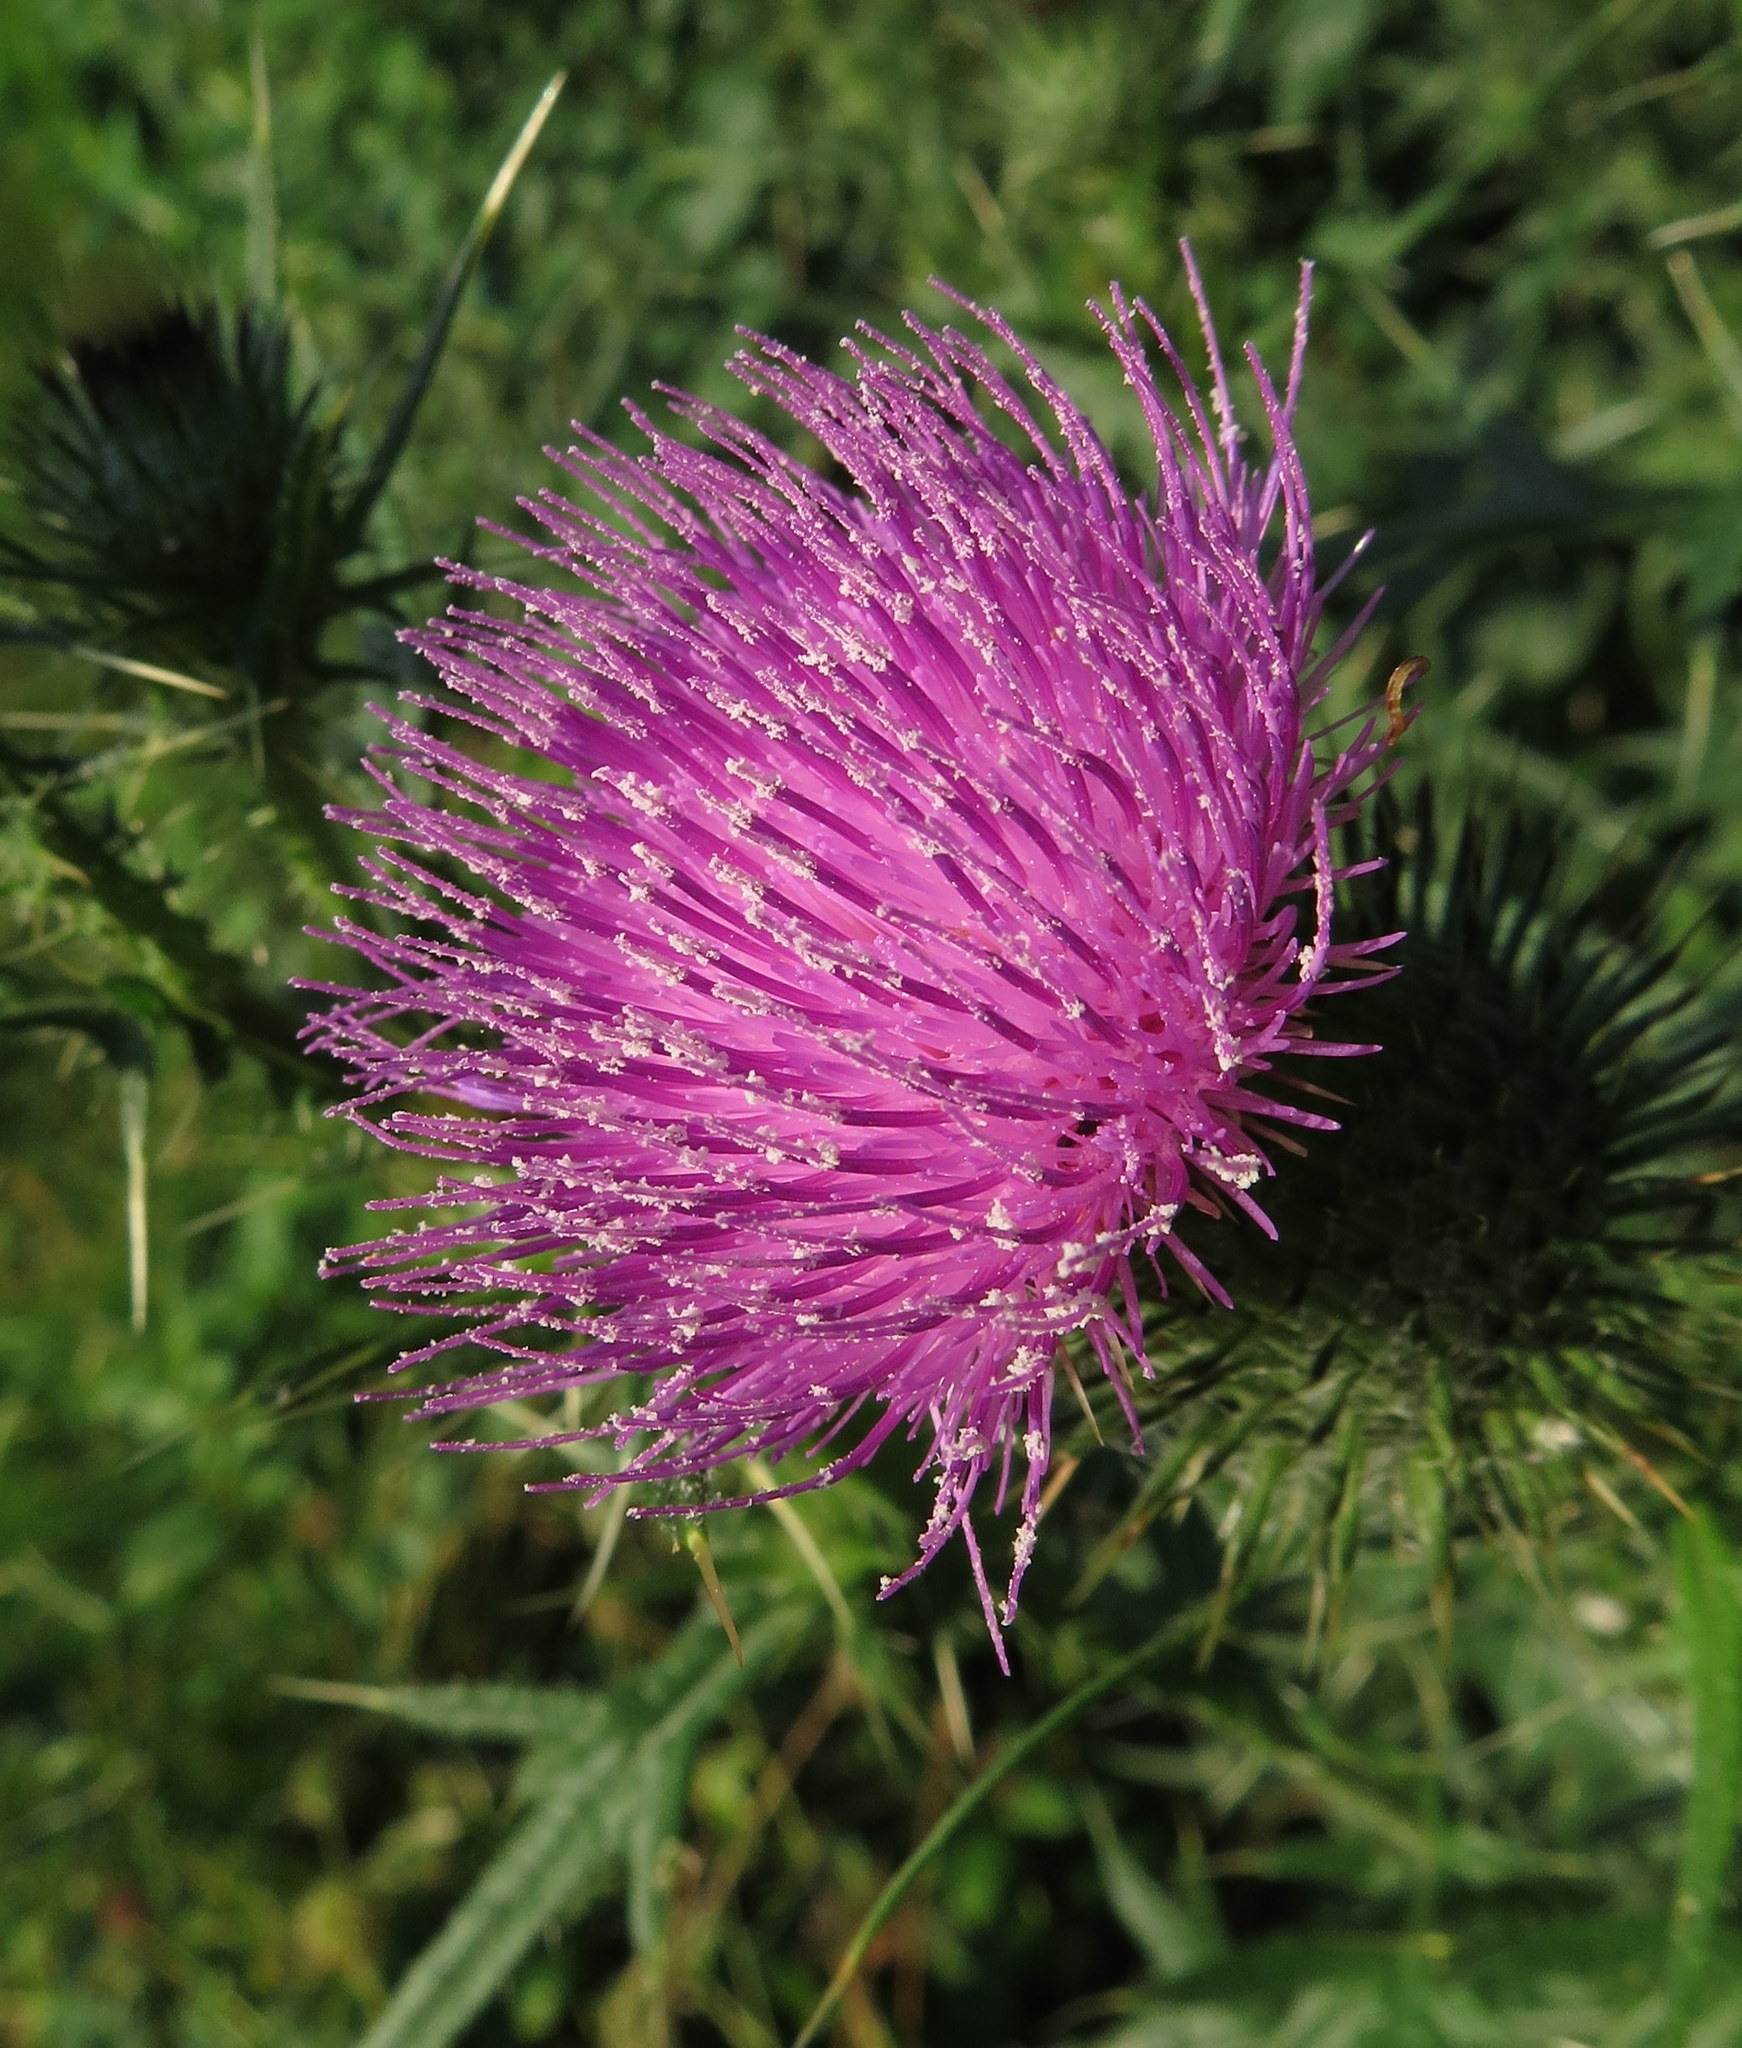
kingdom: Plantae
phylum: Tracheophyta
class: Magnoliopsida
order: Asterales
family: Asteraceae
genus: Cirsium
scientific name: Cirsium vulgare
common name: Bull thistle
